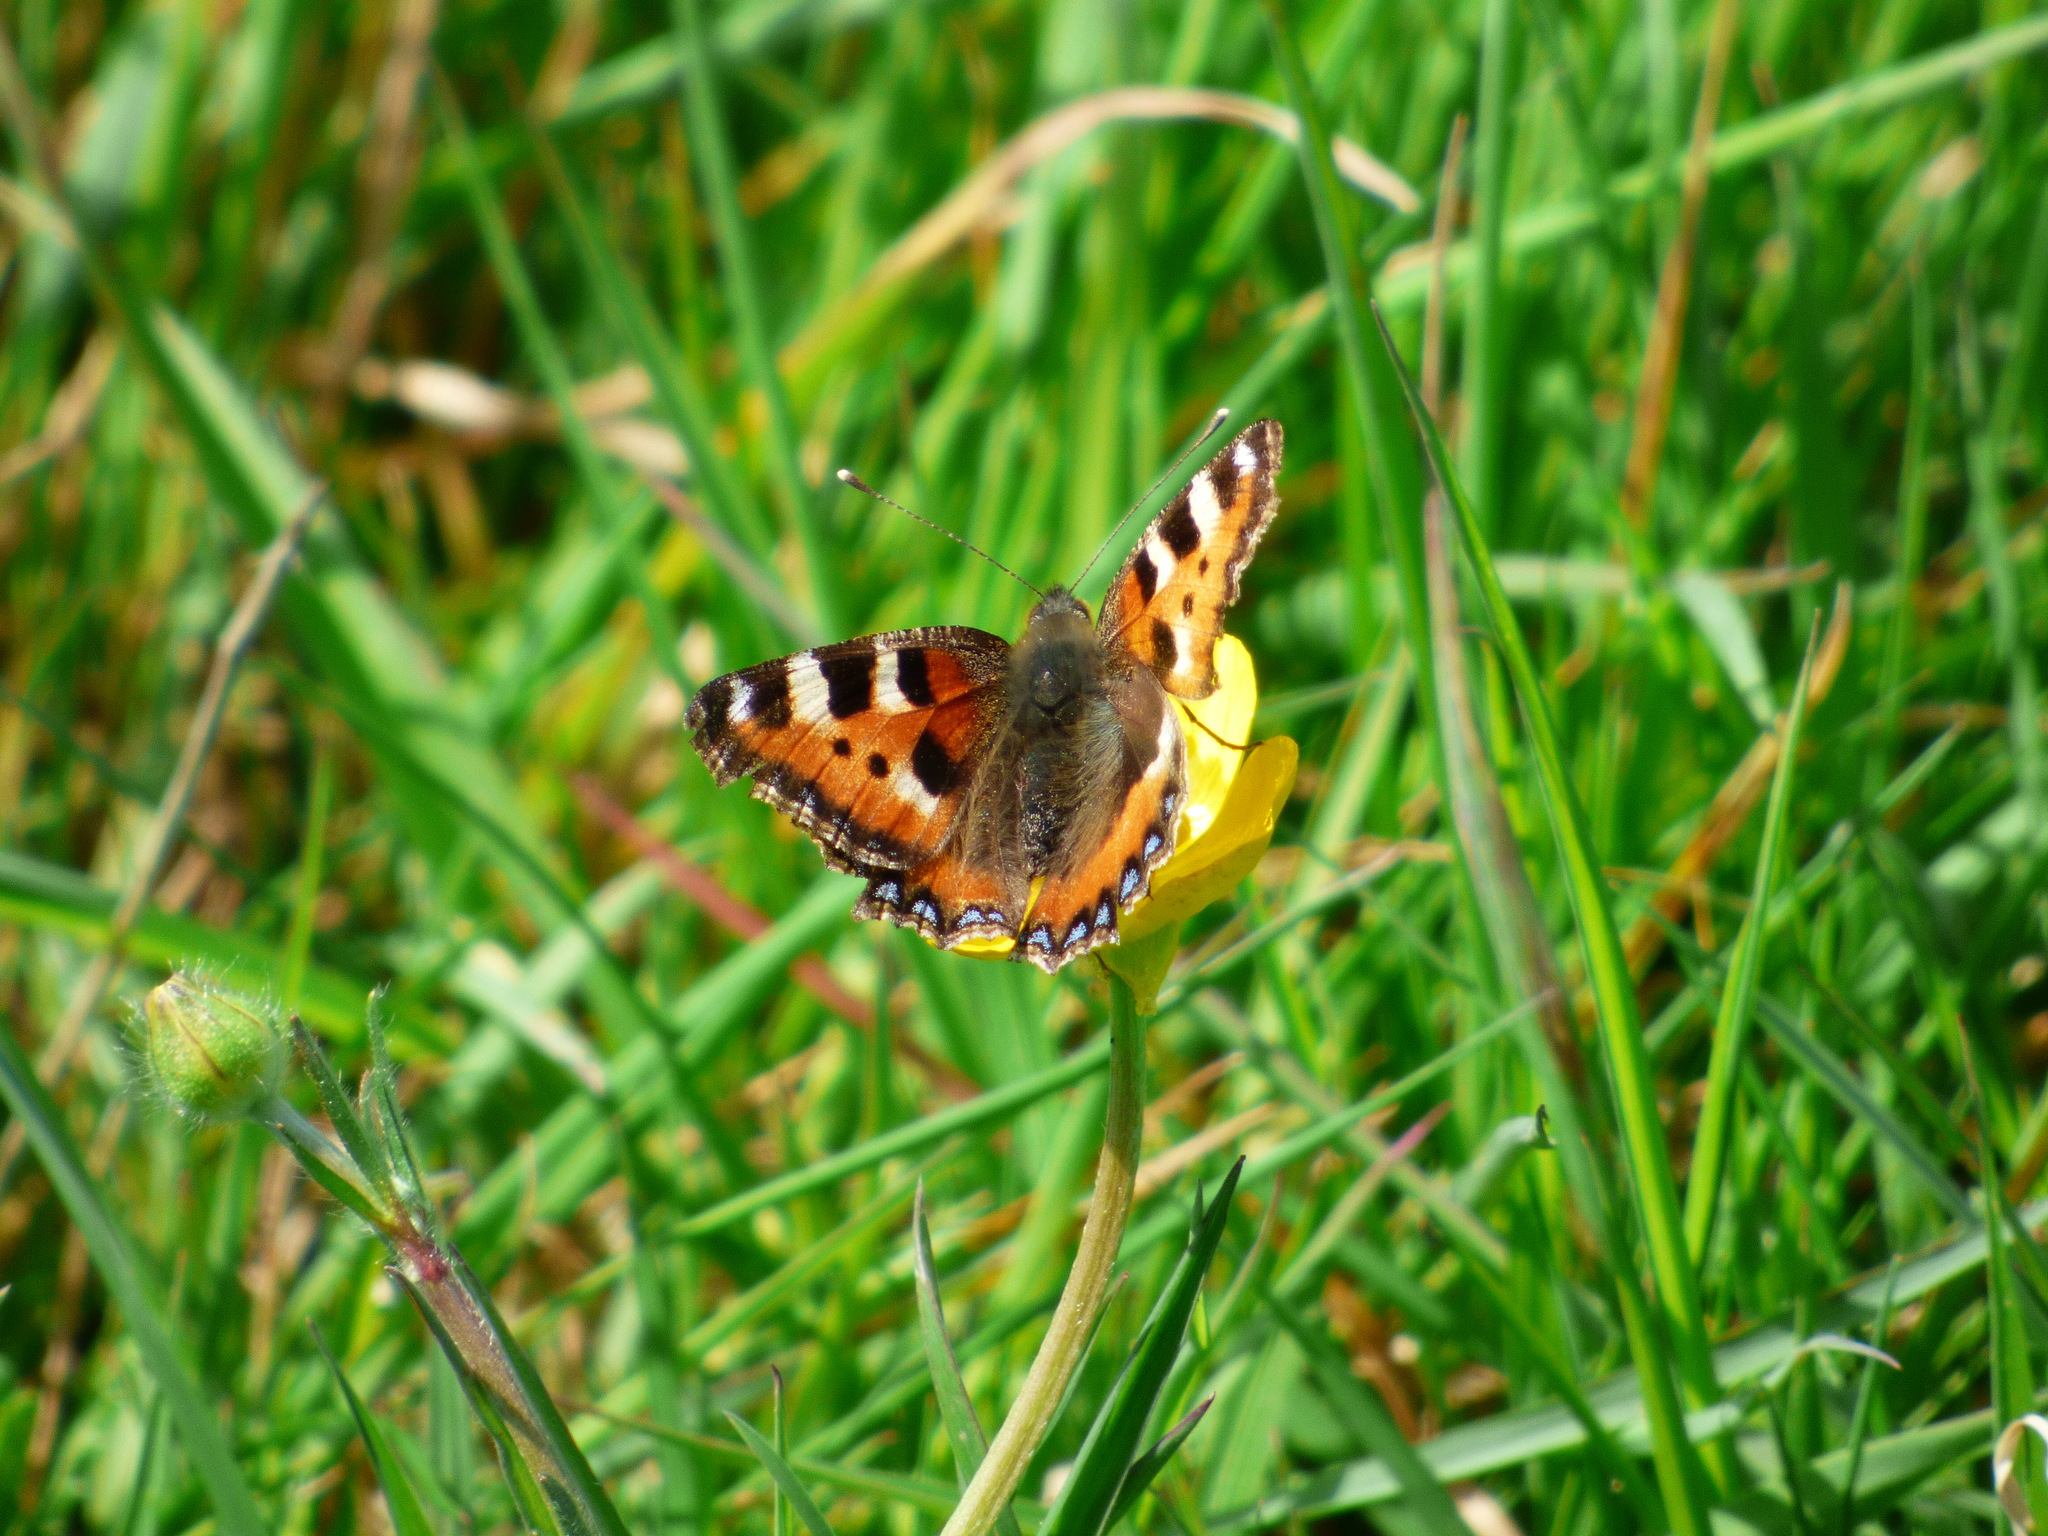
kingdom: Animalia
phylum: Arthropoda
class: Insecta
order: Lepidoptera
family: Nymphalidae
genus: Aglais
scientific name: Aglais urticae
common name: Small tortoiseshell
